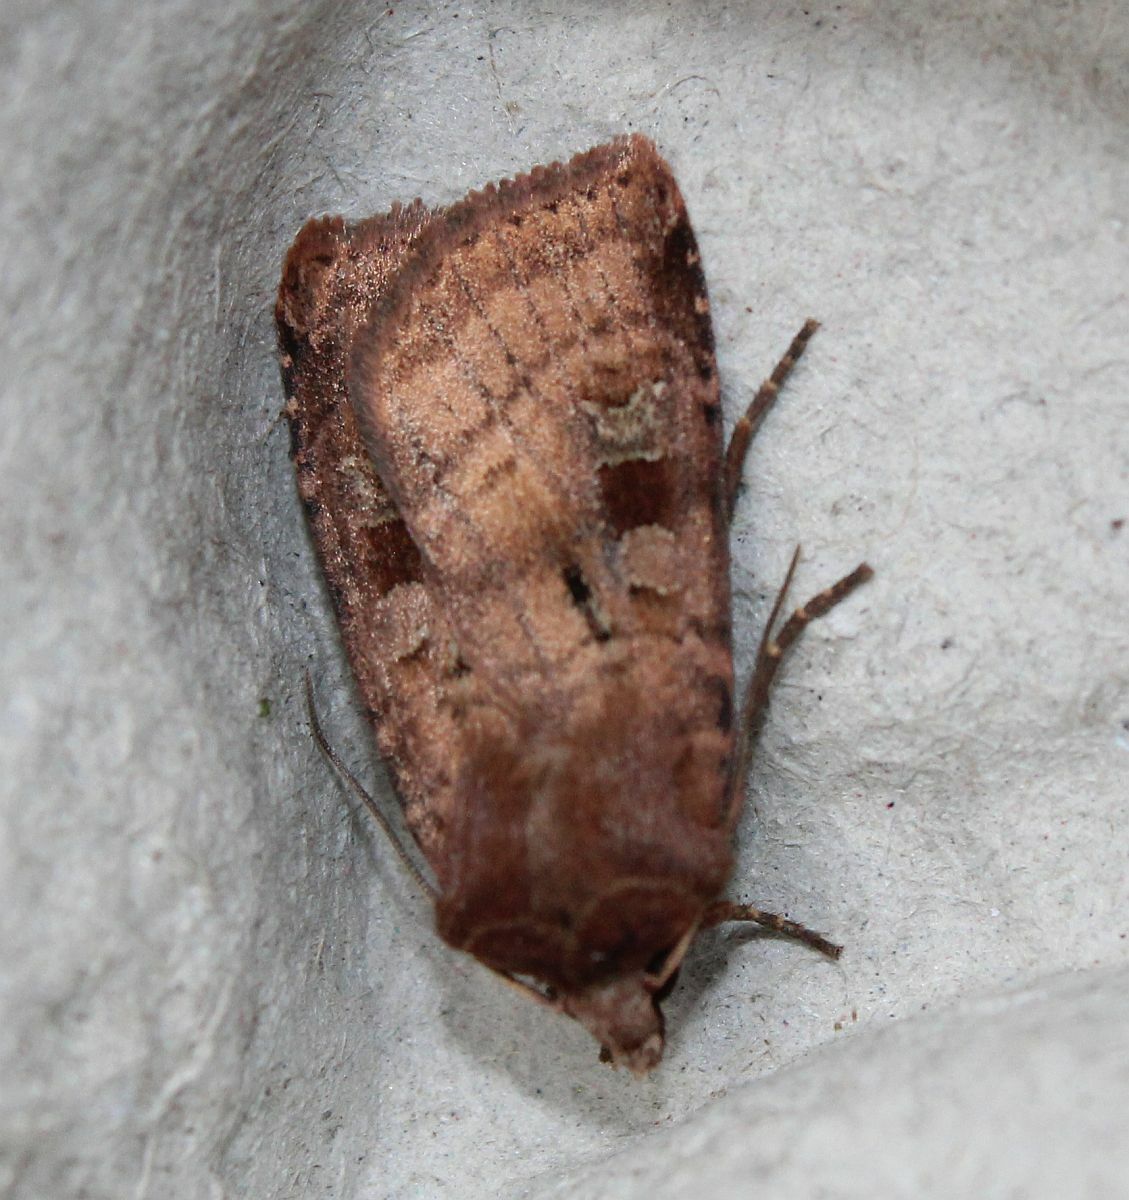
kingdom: Animalia
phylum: Arthropoda
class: Insecta
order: Lepidoptera
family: Noctuidae
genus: Diarsia
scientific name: Diarsia rubi
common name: Small square-spot
